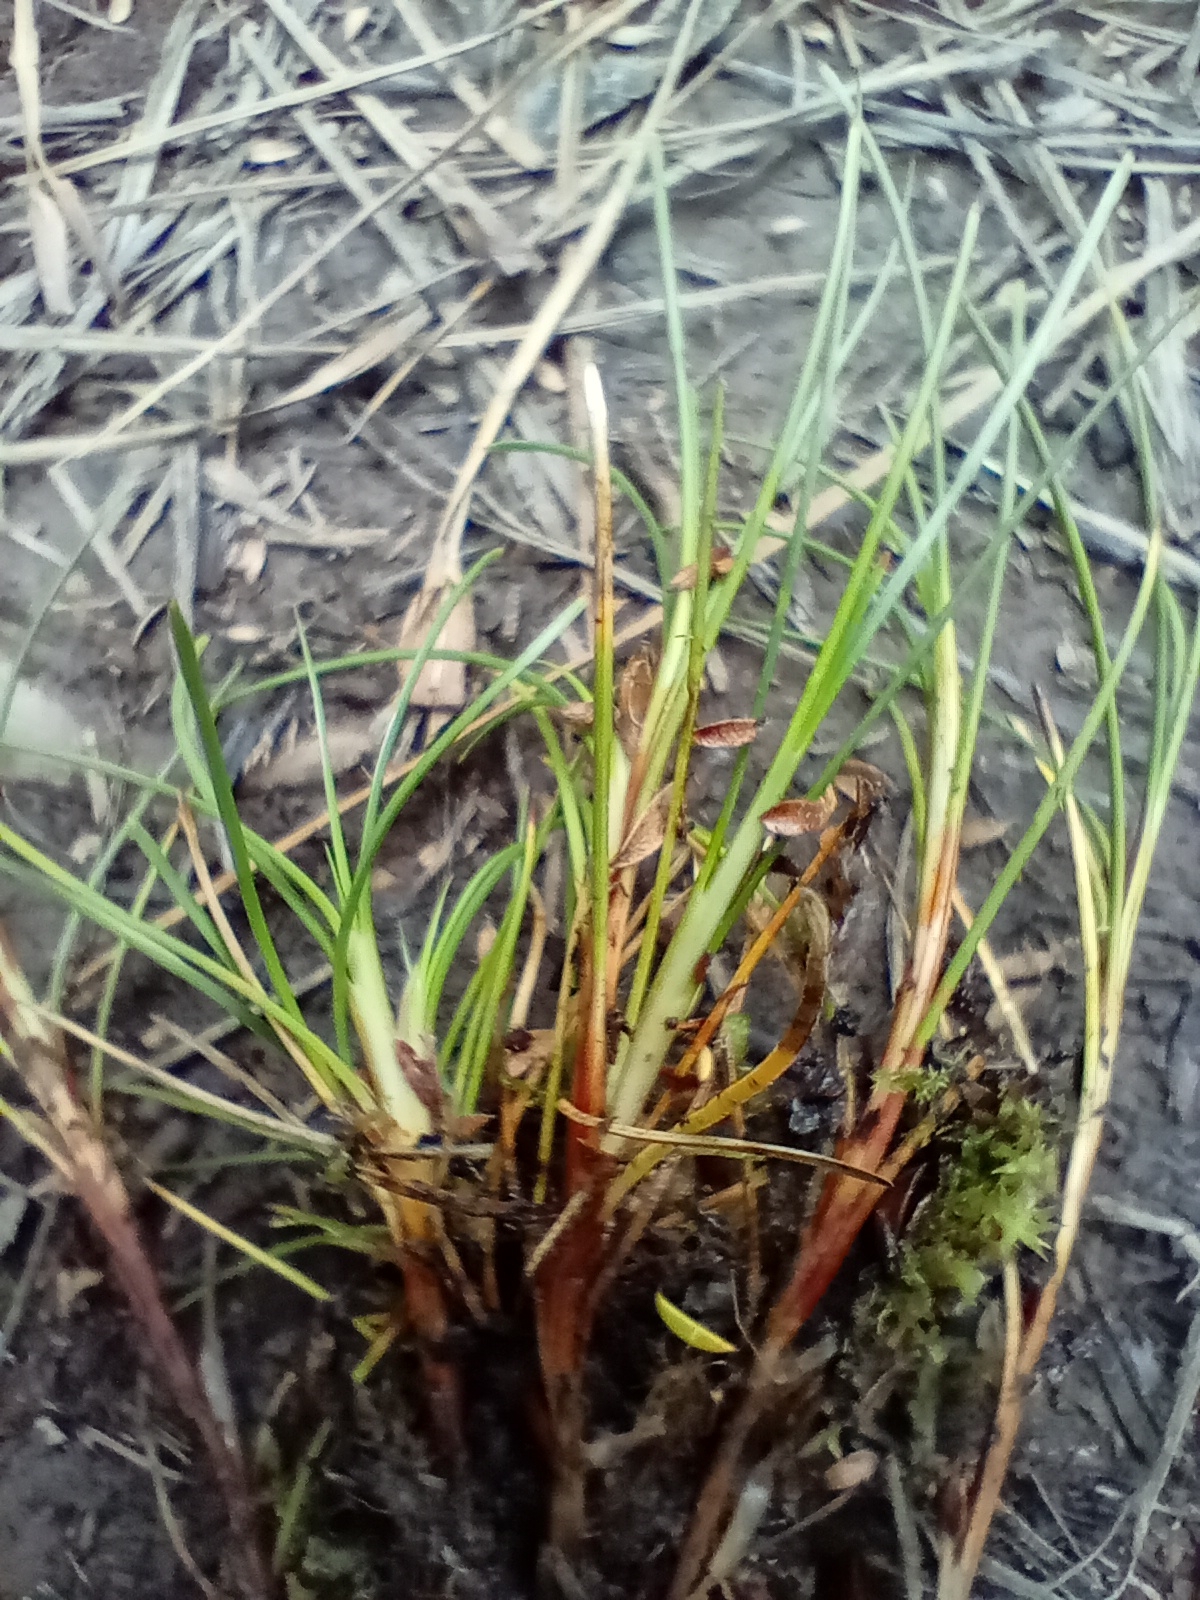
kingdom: Plantae
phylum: Tracheophyta
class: Liliopsida
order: Poales
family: Cyperaceae
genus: Oreobolus
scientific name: Oreobolus strictus
